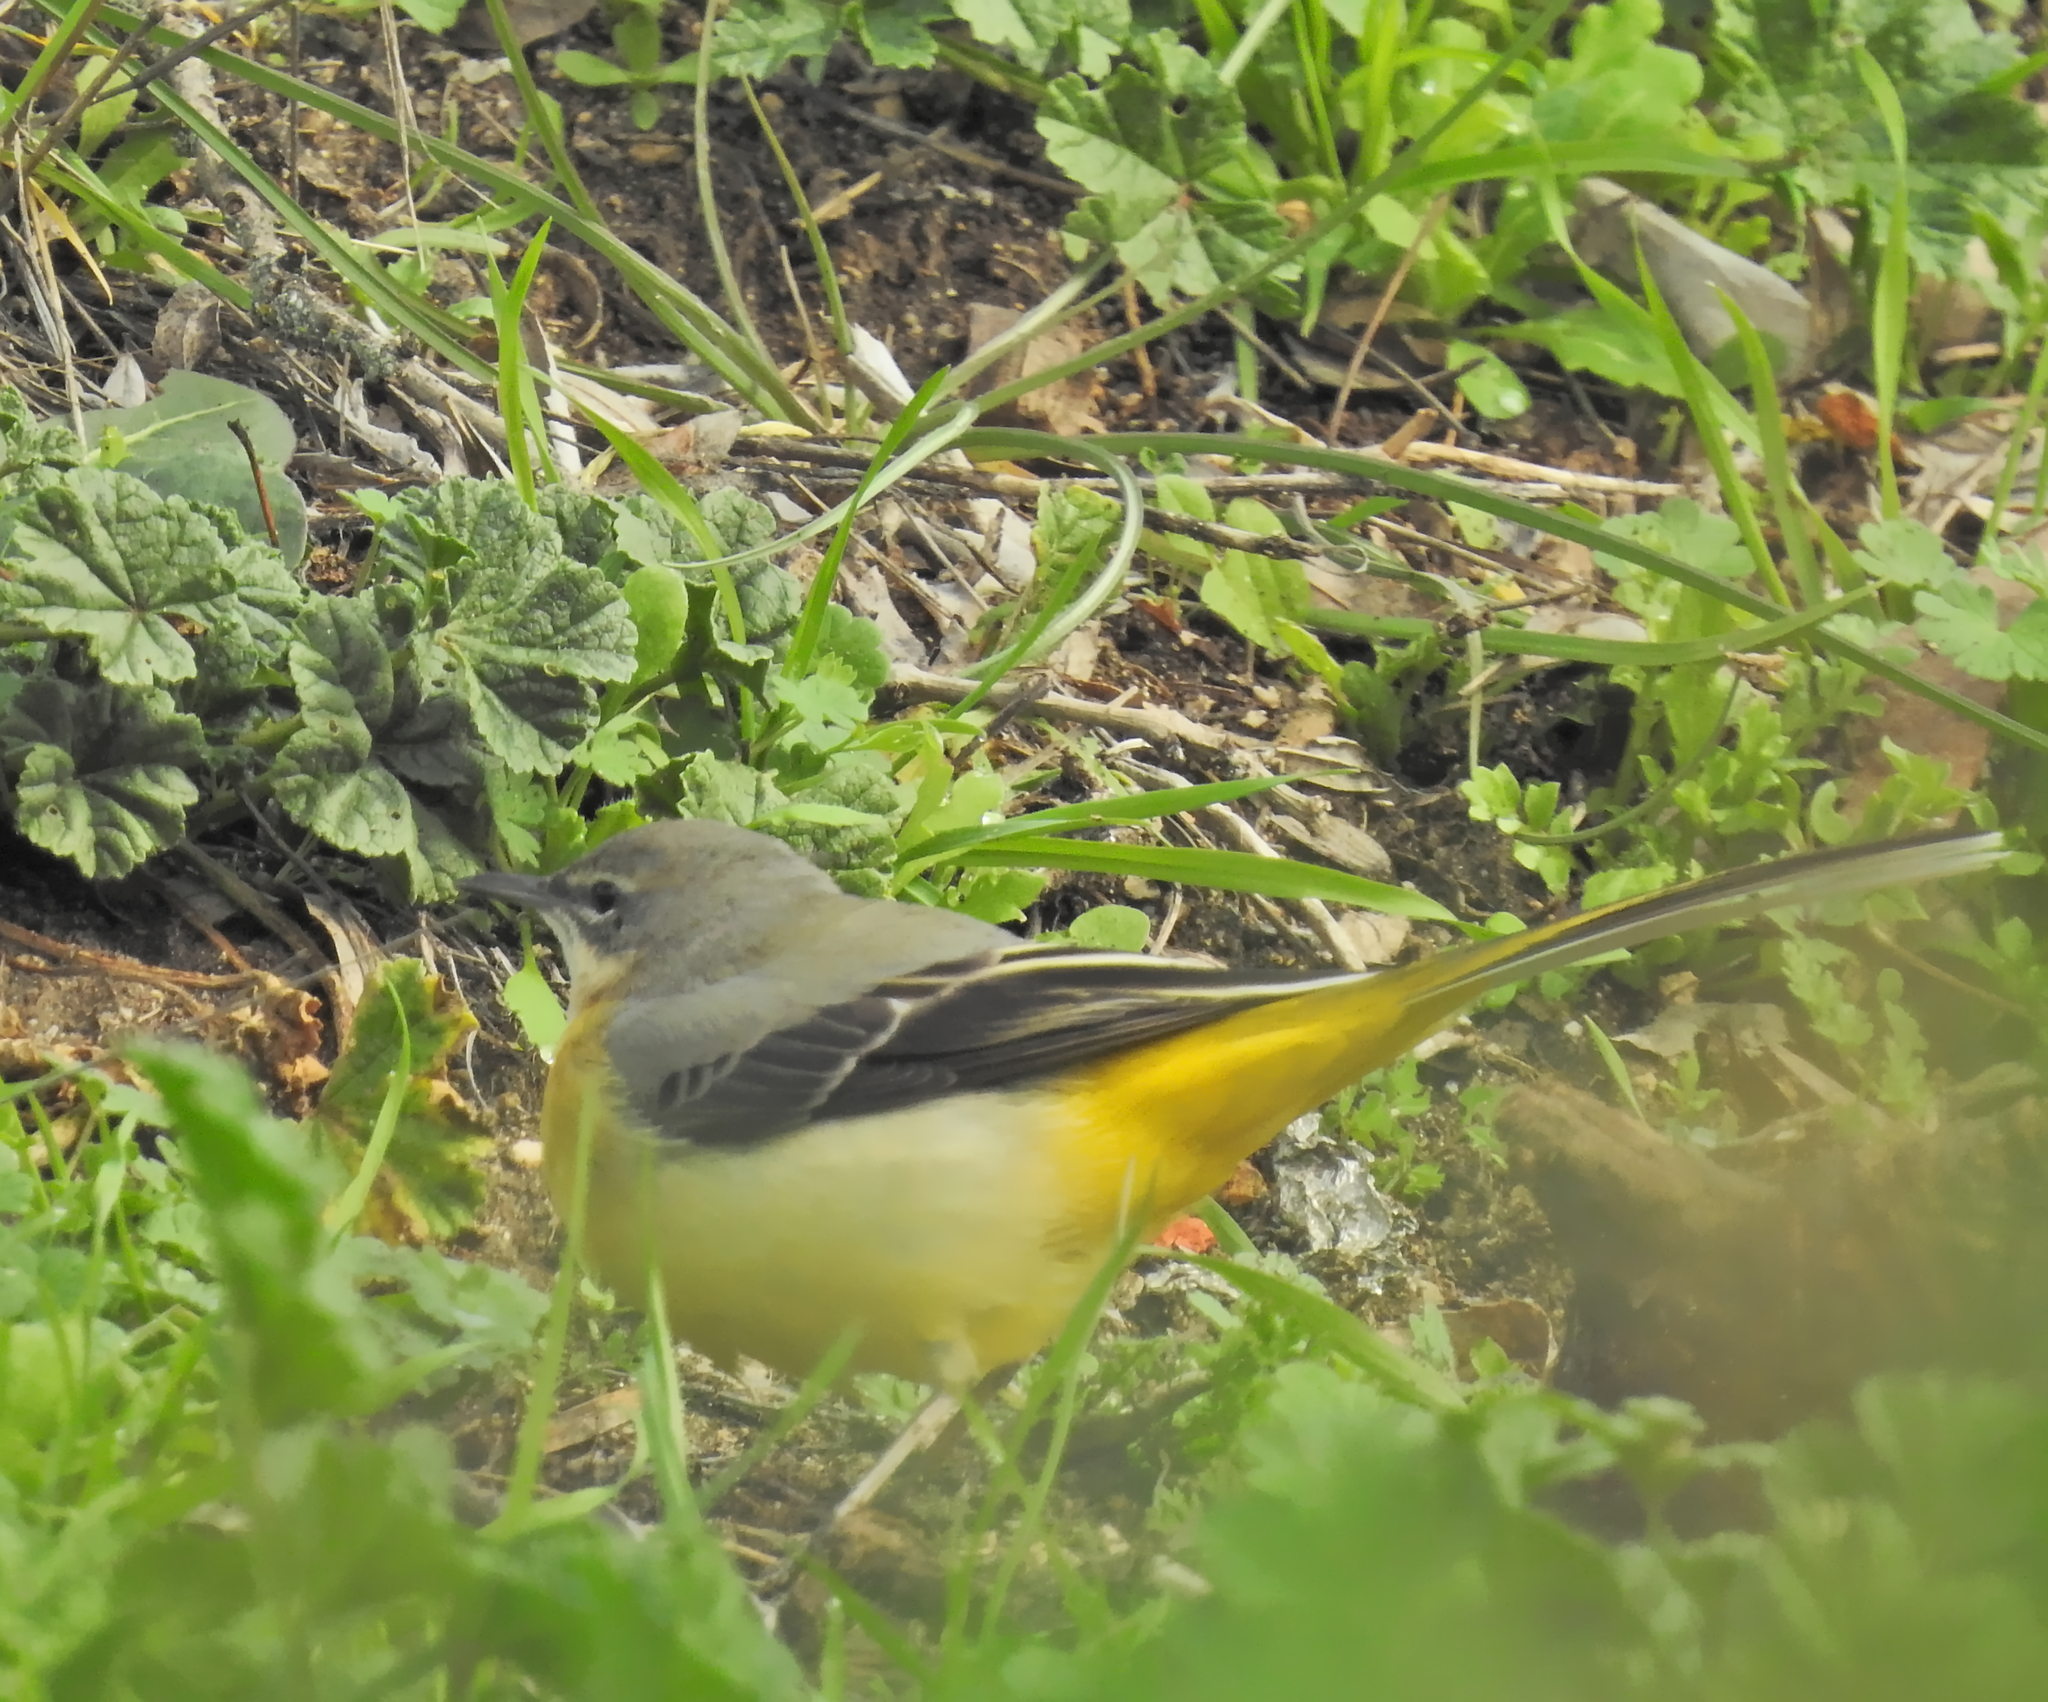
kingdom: Animalia
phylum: Chordata
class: Aves
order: Passeriformes
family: Motacillidae
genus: Motacilla
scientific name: Motacilla cinerea
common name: Grey wagtail
